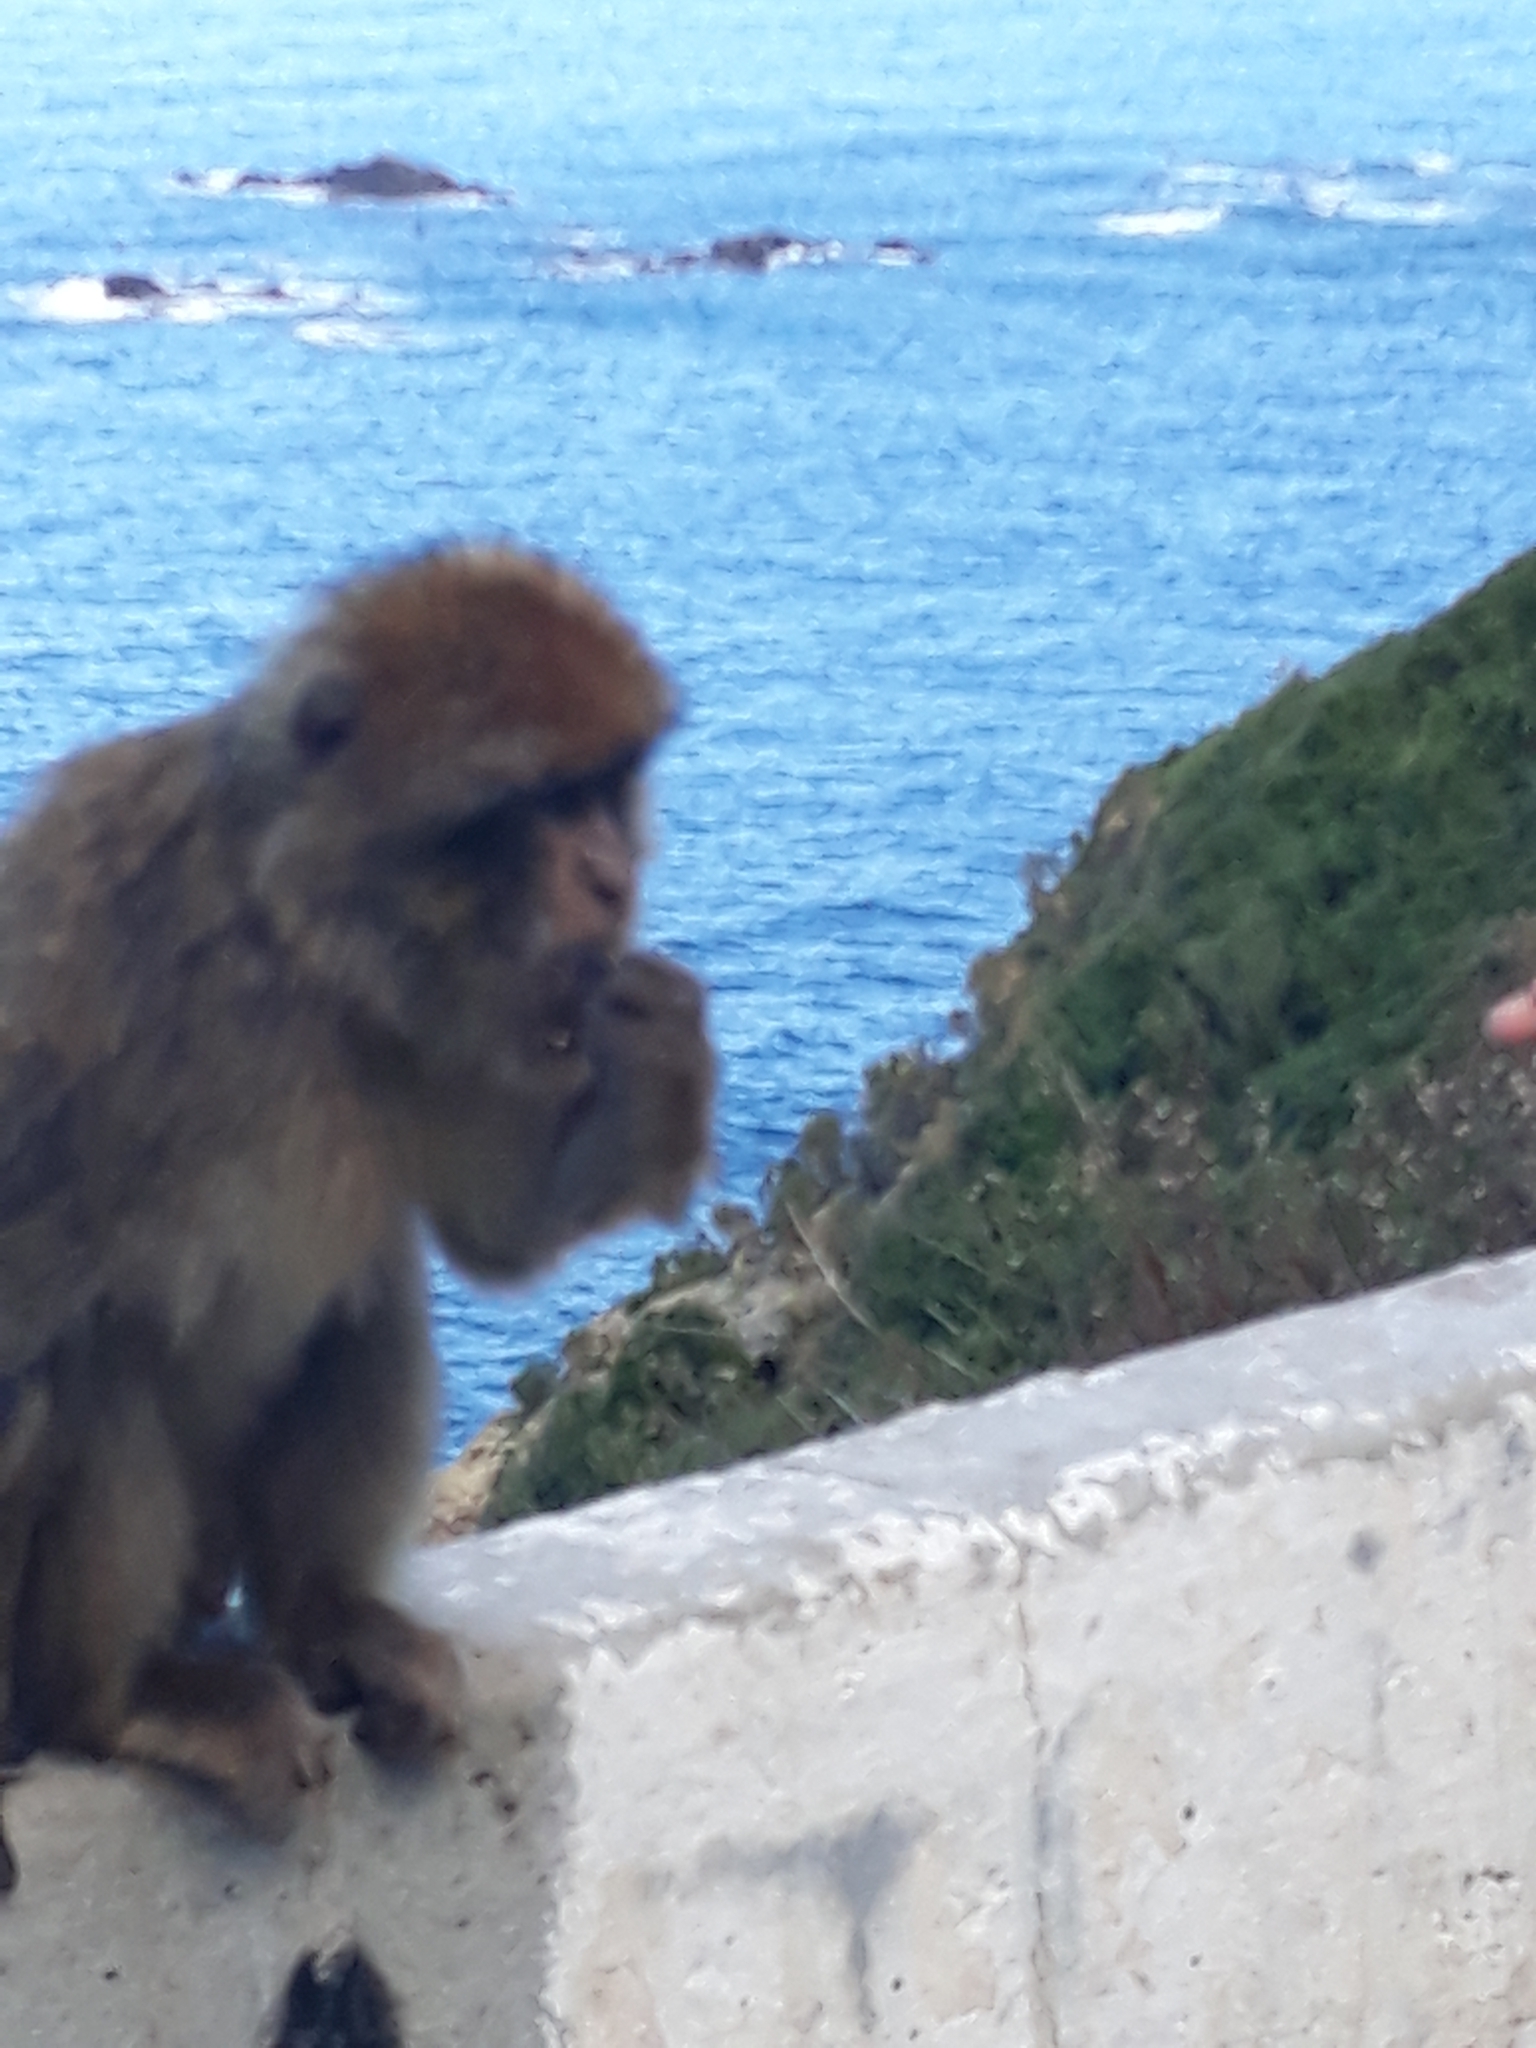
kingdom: Animalia
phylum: Chordata
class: Mammalia
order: Primates
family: Cercopithecidae
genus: Macaca
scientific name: Macaca sylvanus
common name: Barbary macaque
